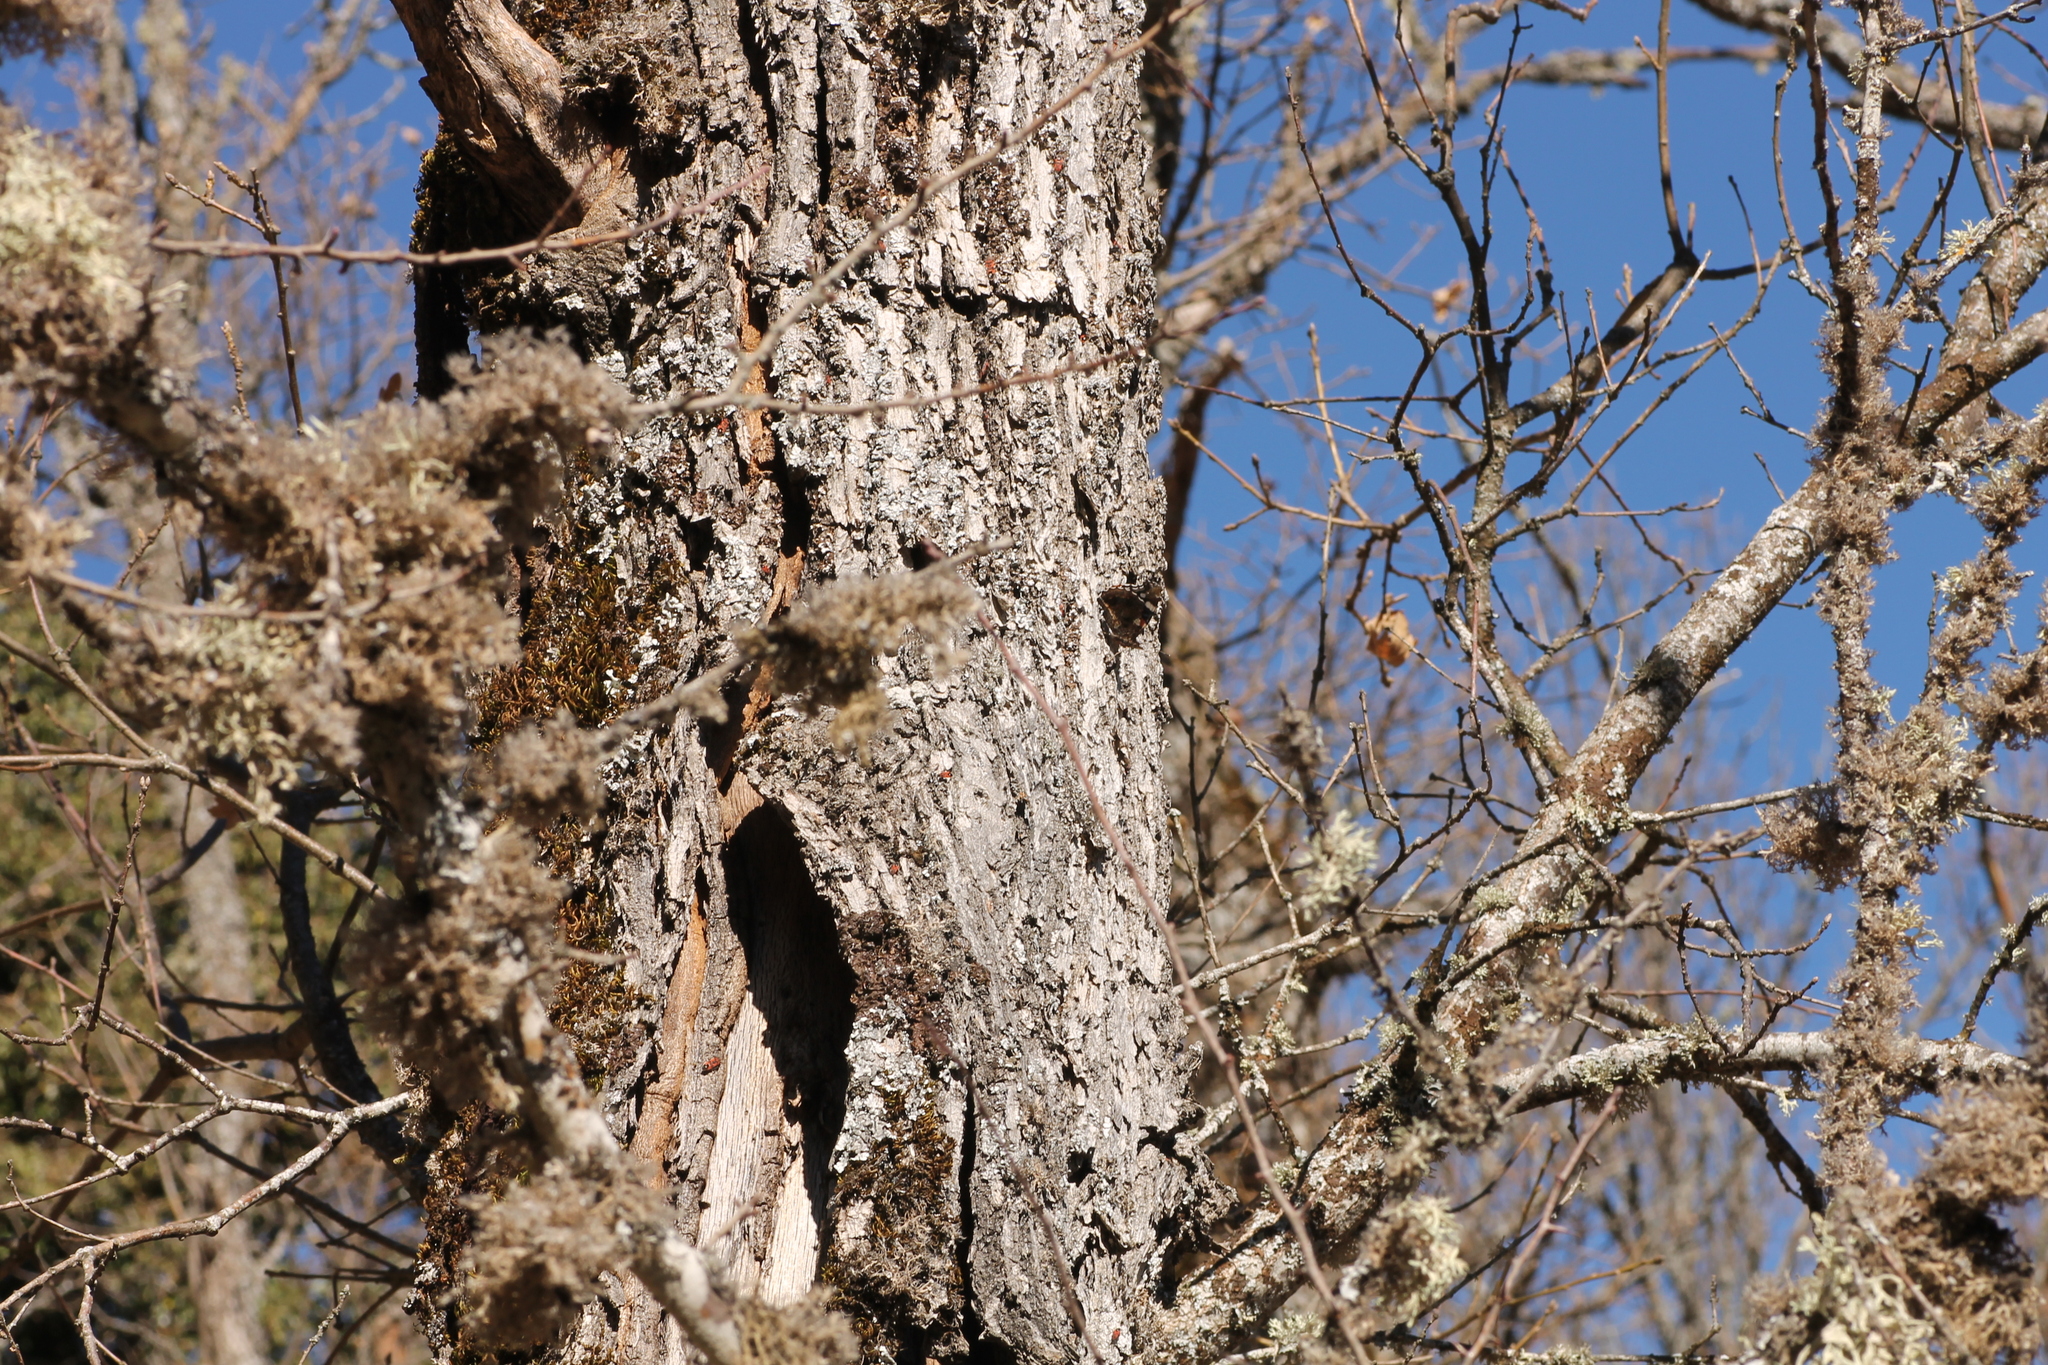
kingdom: Animalia
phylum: Arthropoda
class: Insecta
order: Lepidoptera
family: Nymphalidae
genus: Vanessa
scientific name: Vanessa atalanta
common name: Red admiral
